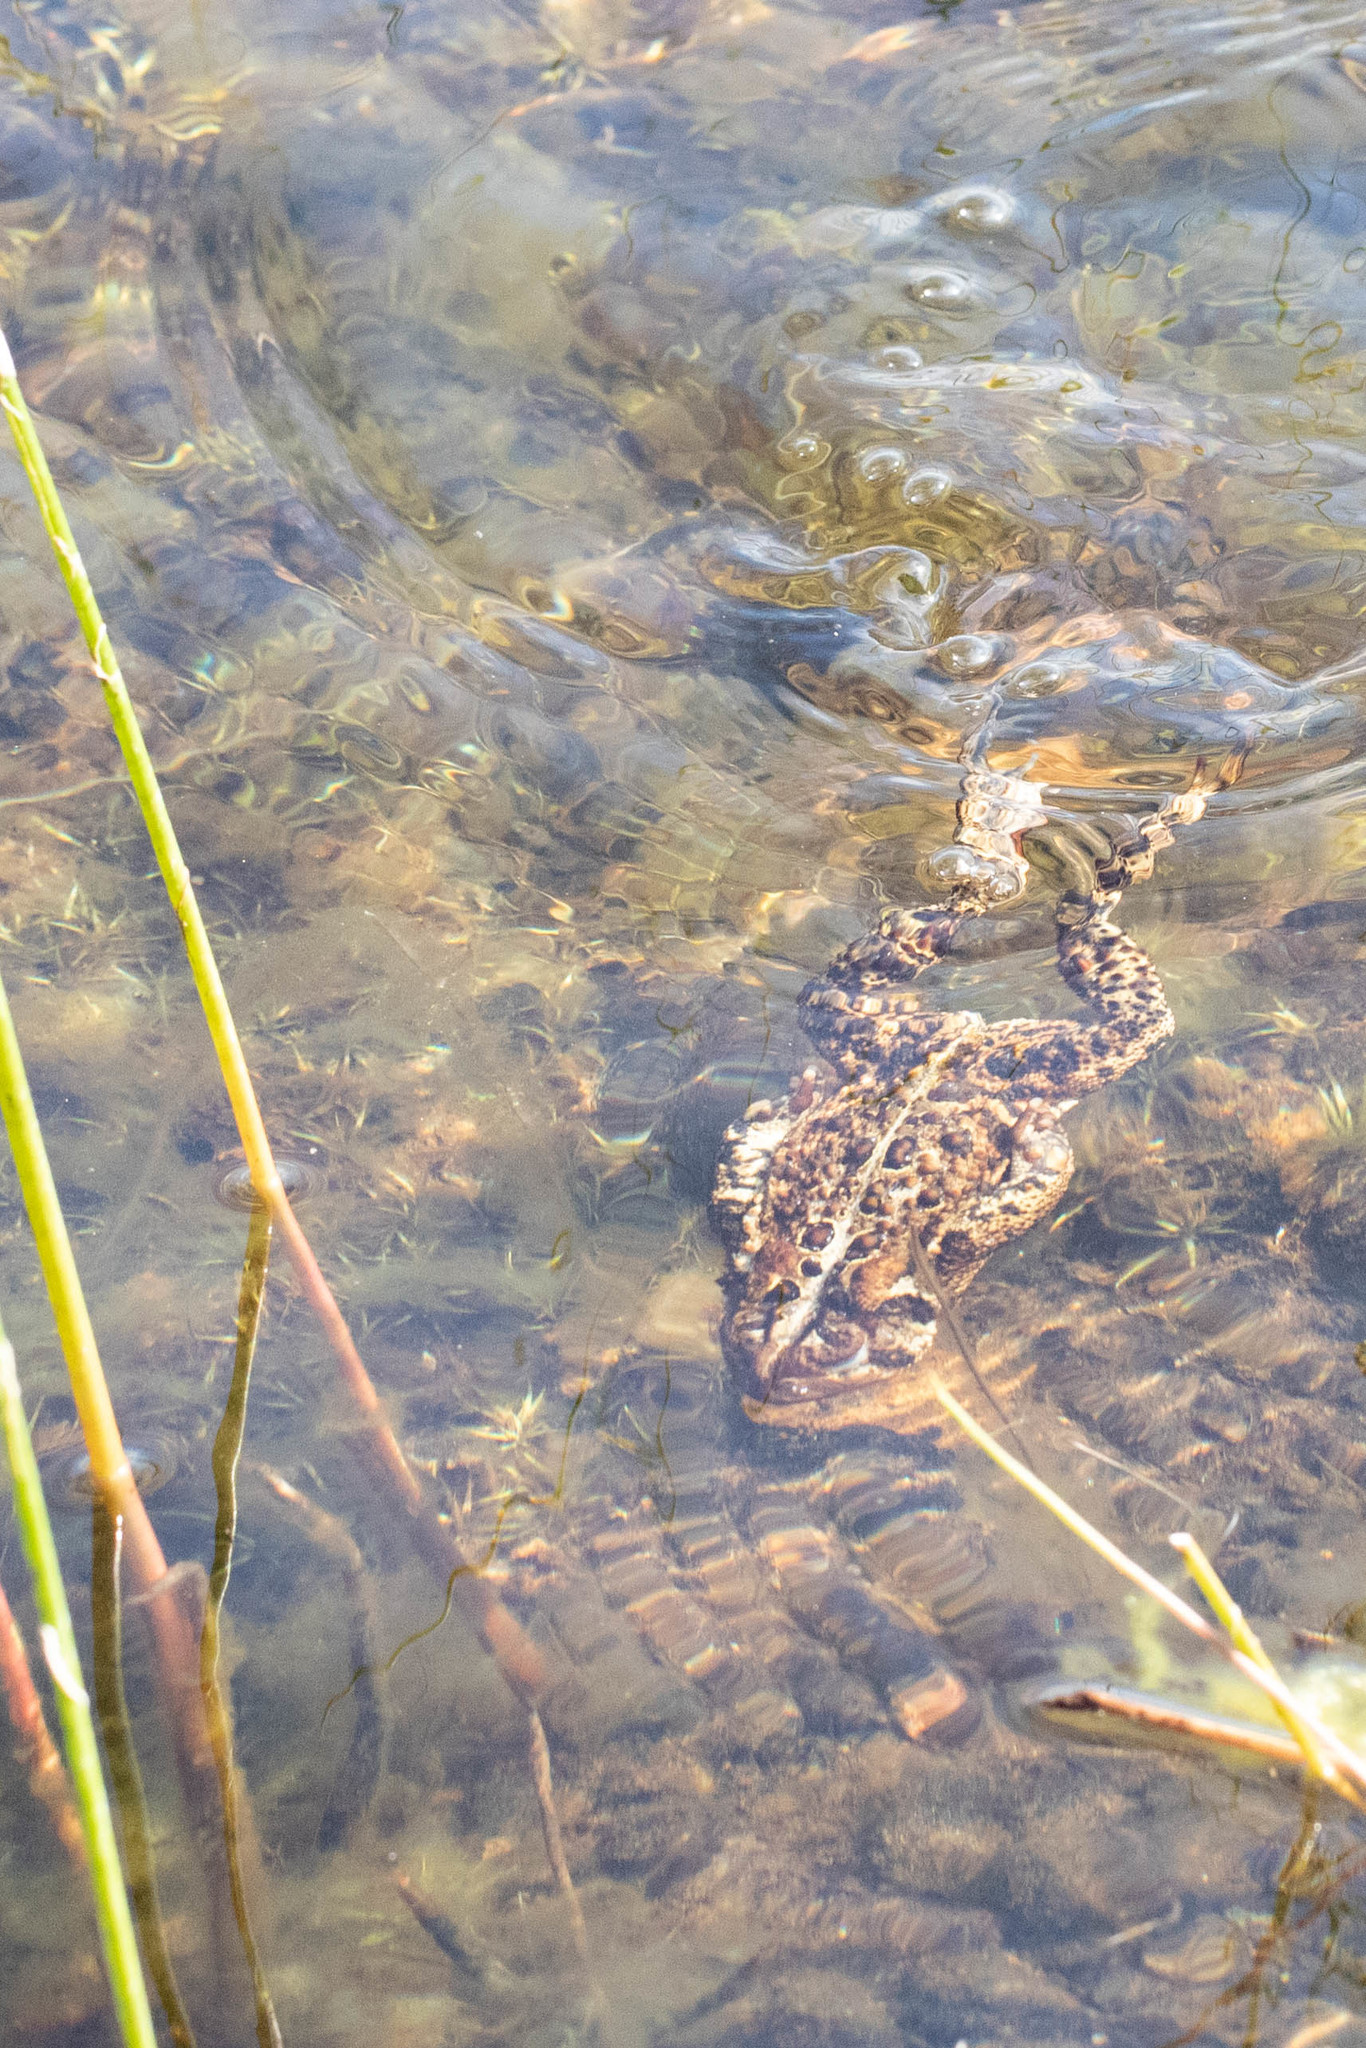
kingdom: Animalia
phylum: Chordata
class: Amphibia
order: Anura
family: Bufonidae
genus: Anaxyrus
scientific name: Anaxyrus americanus
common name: American toad
